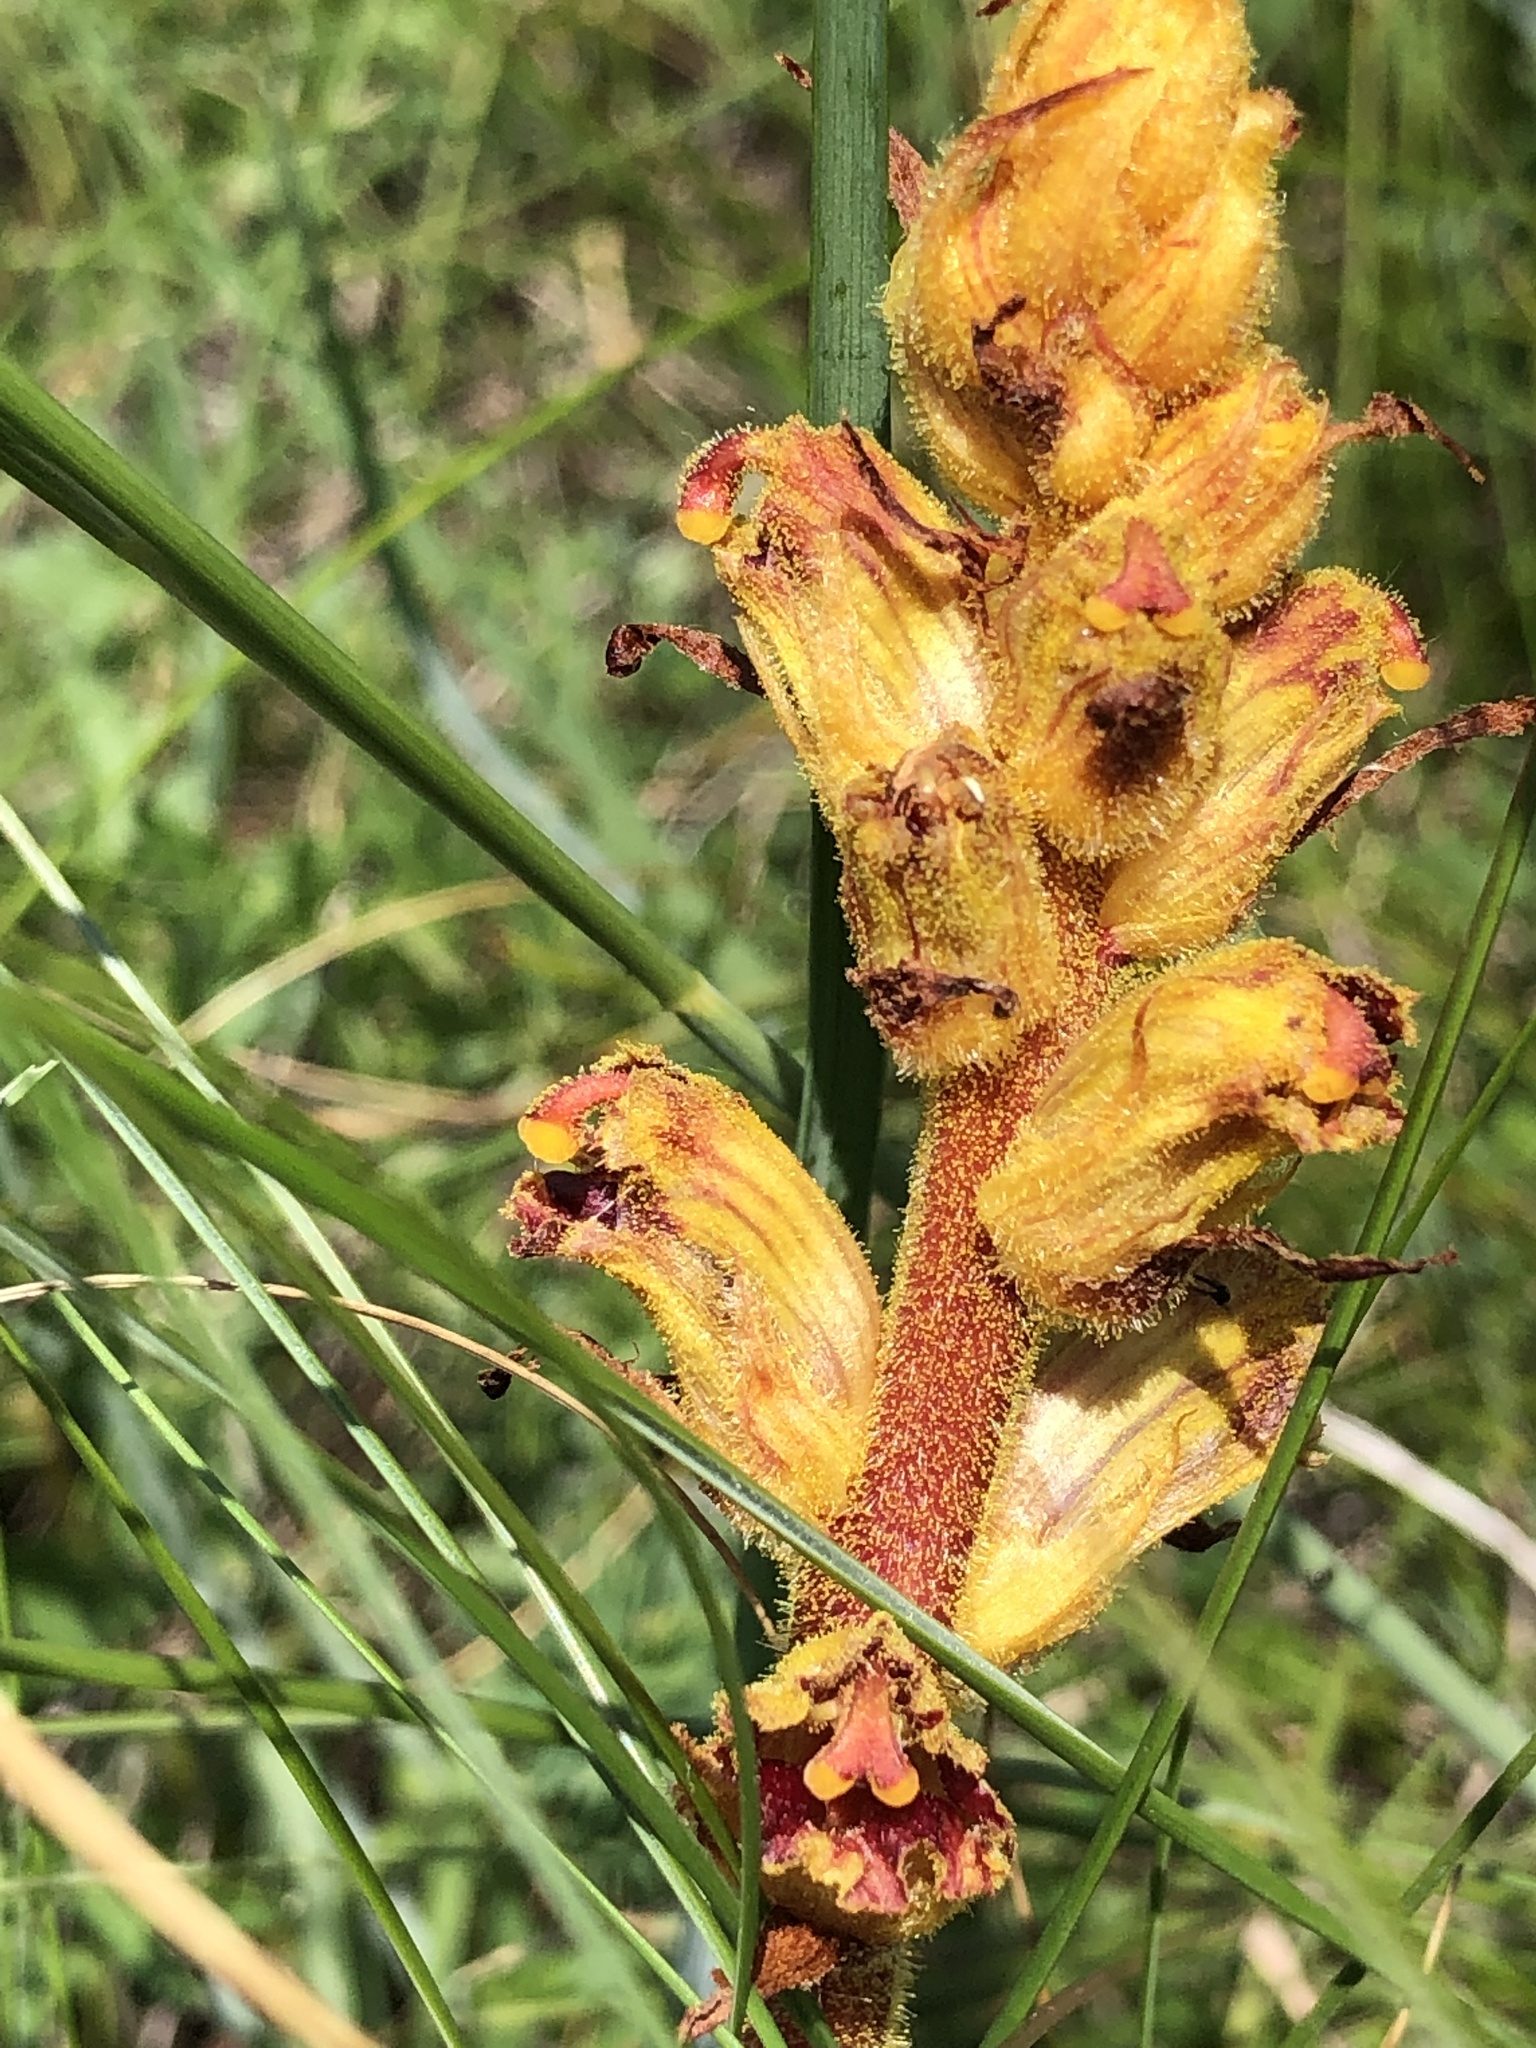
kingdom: Plantae
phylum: Tracheophyta
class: Magnoliopsida
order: Lamiales
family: Orobanchaceae
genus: Orobanche
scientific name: Orobanche gracilis
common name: Slender broomrape
